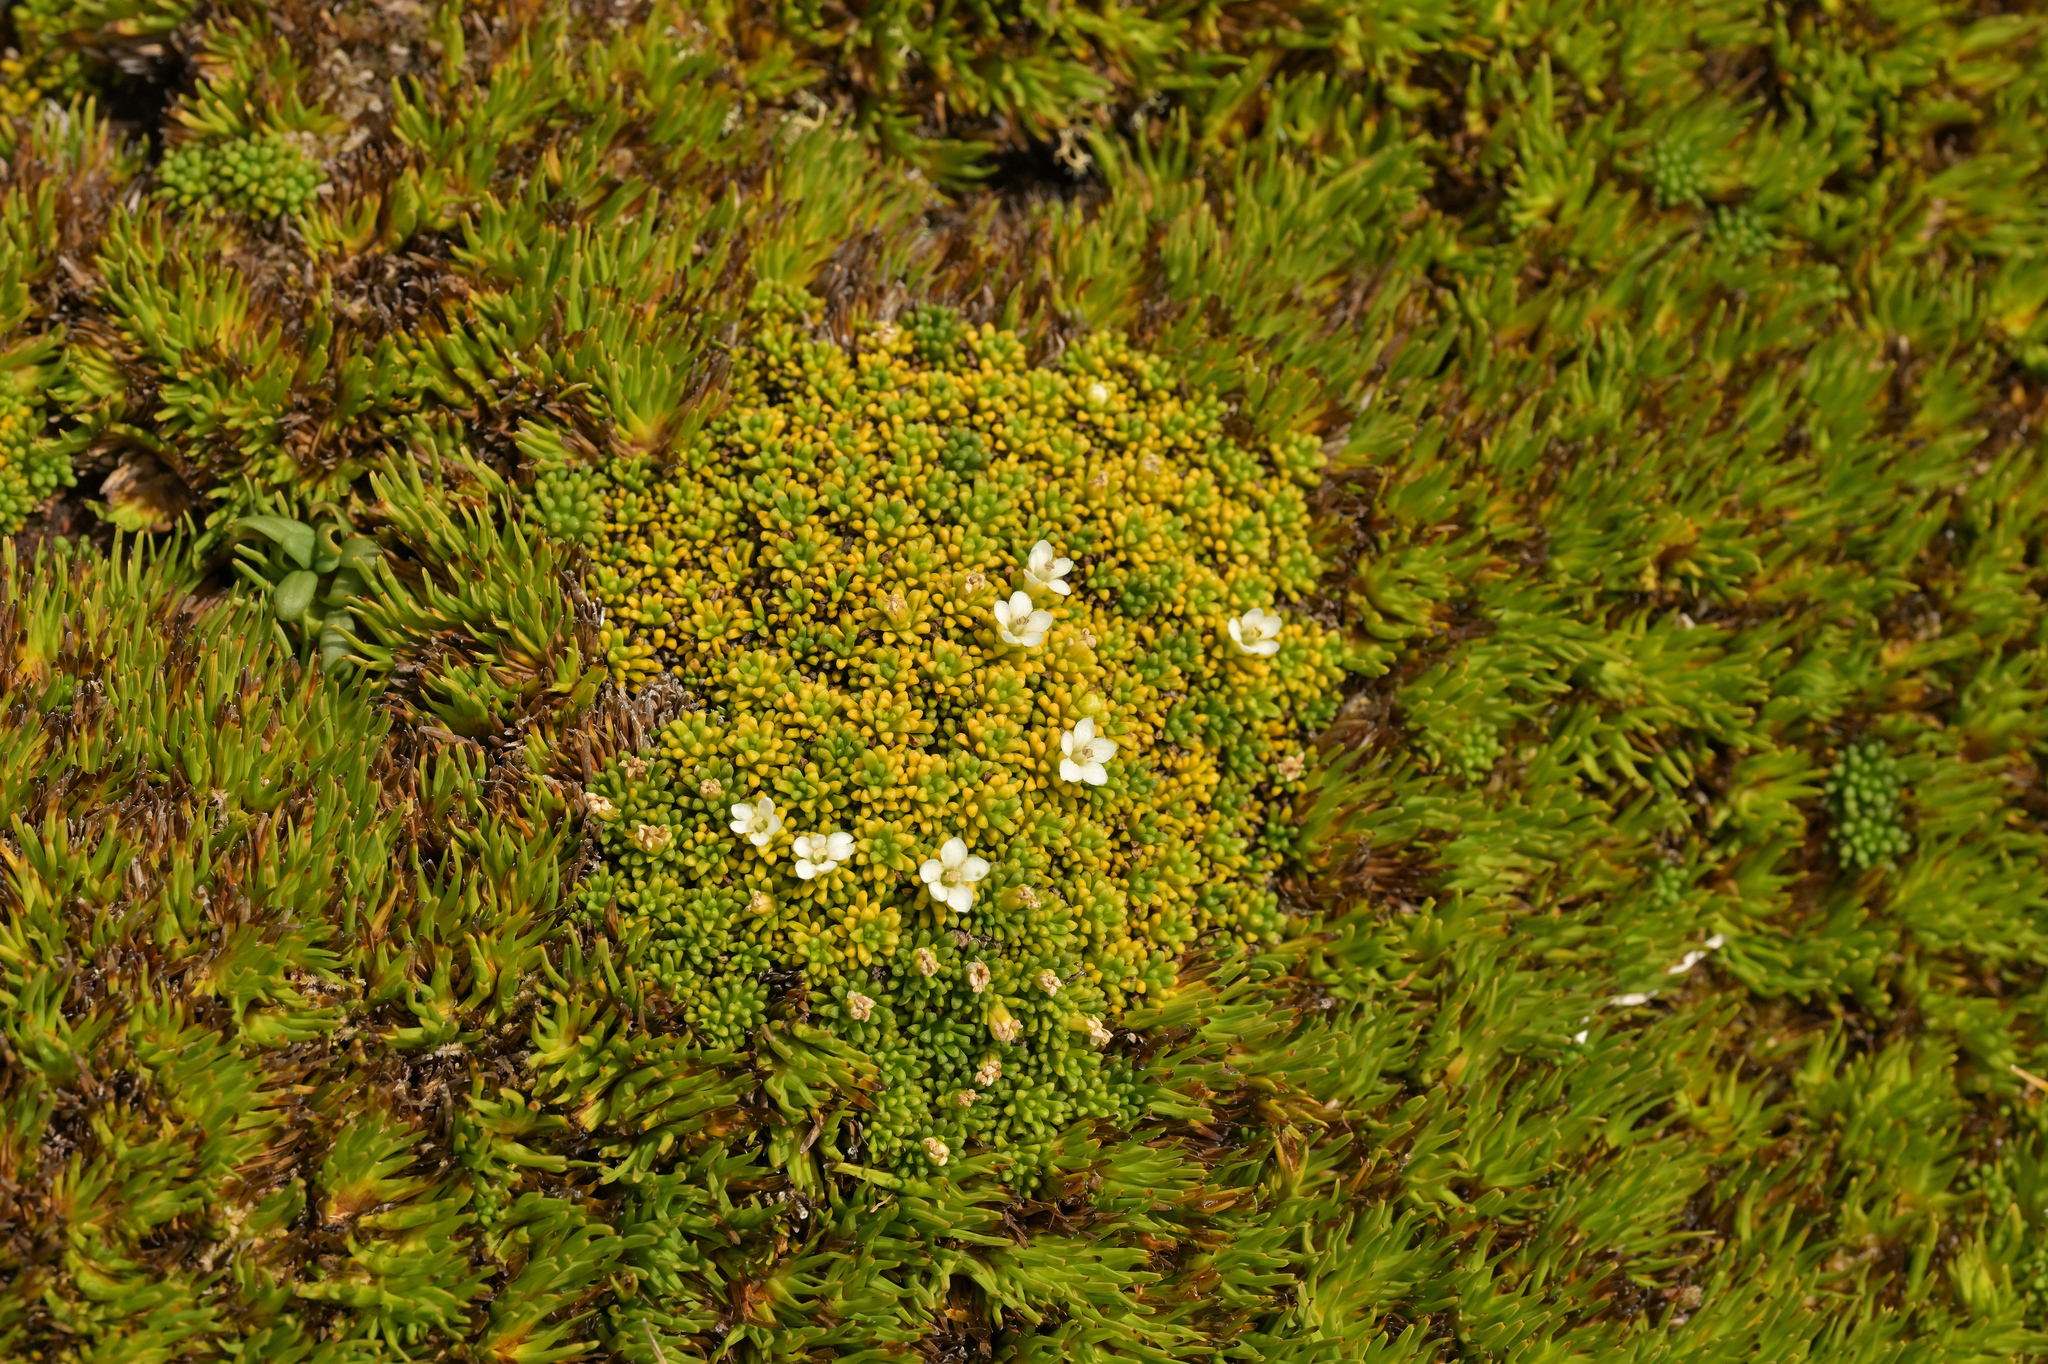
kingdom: Plantae
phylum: Tracheophyta
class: Magnoliopsida
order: Asterales
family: Stylidiaceae
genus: Phyllachne
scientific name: Phyllachne colensoi
